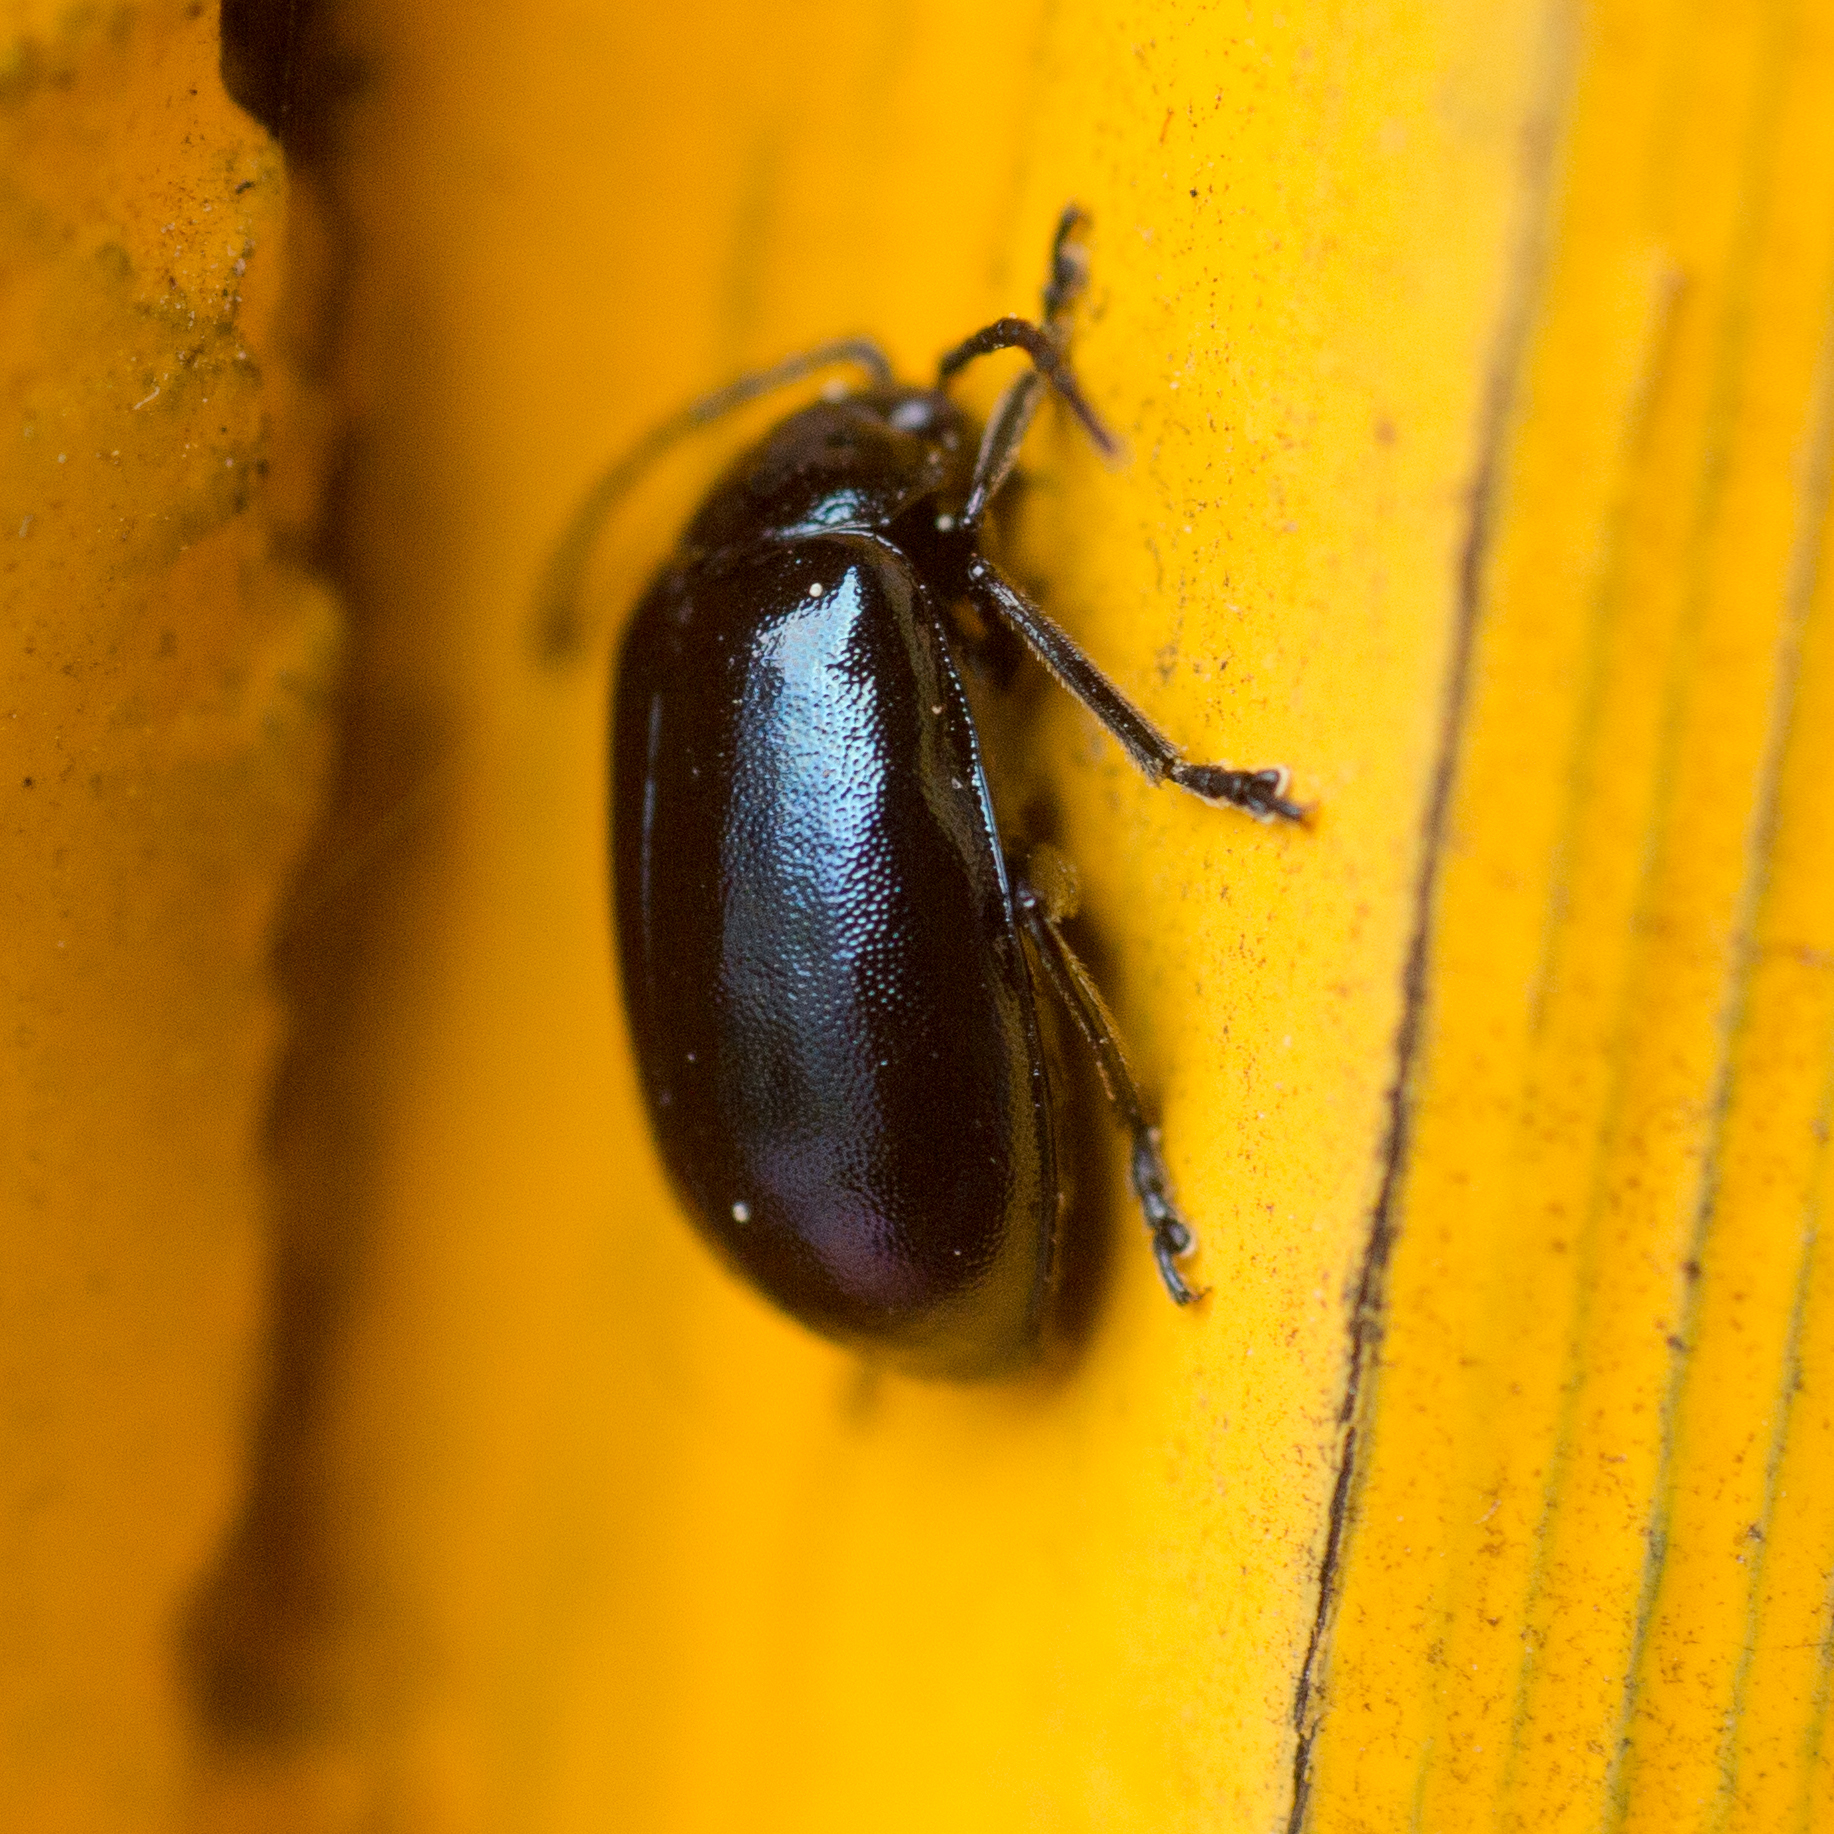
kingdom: Animalia
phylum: Arthropoda
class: Insecta
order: Coleoptera
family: Chrysomelidae
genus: Agelastica
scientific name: Agelastica alni
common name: Alder leaf beetle
